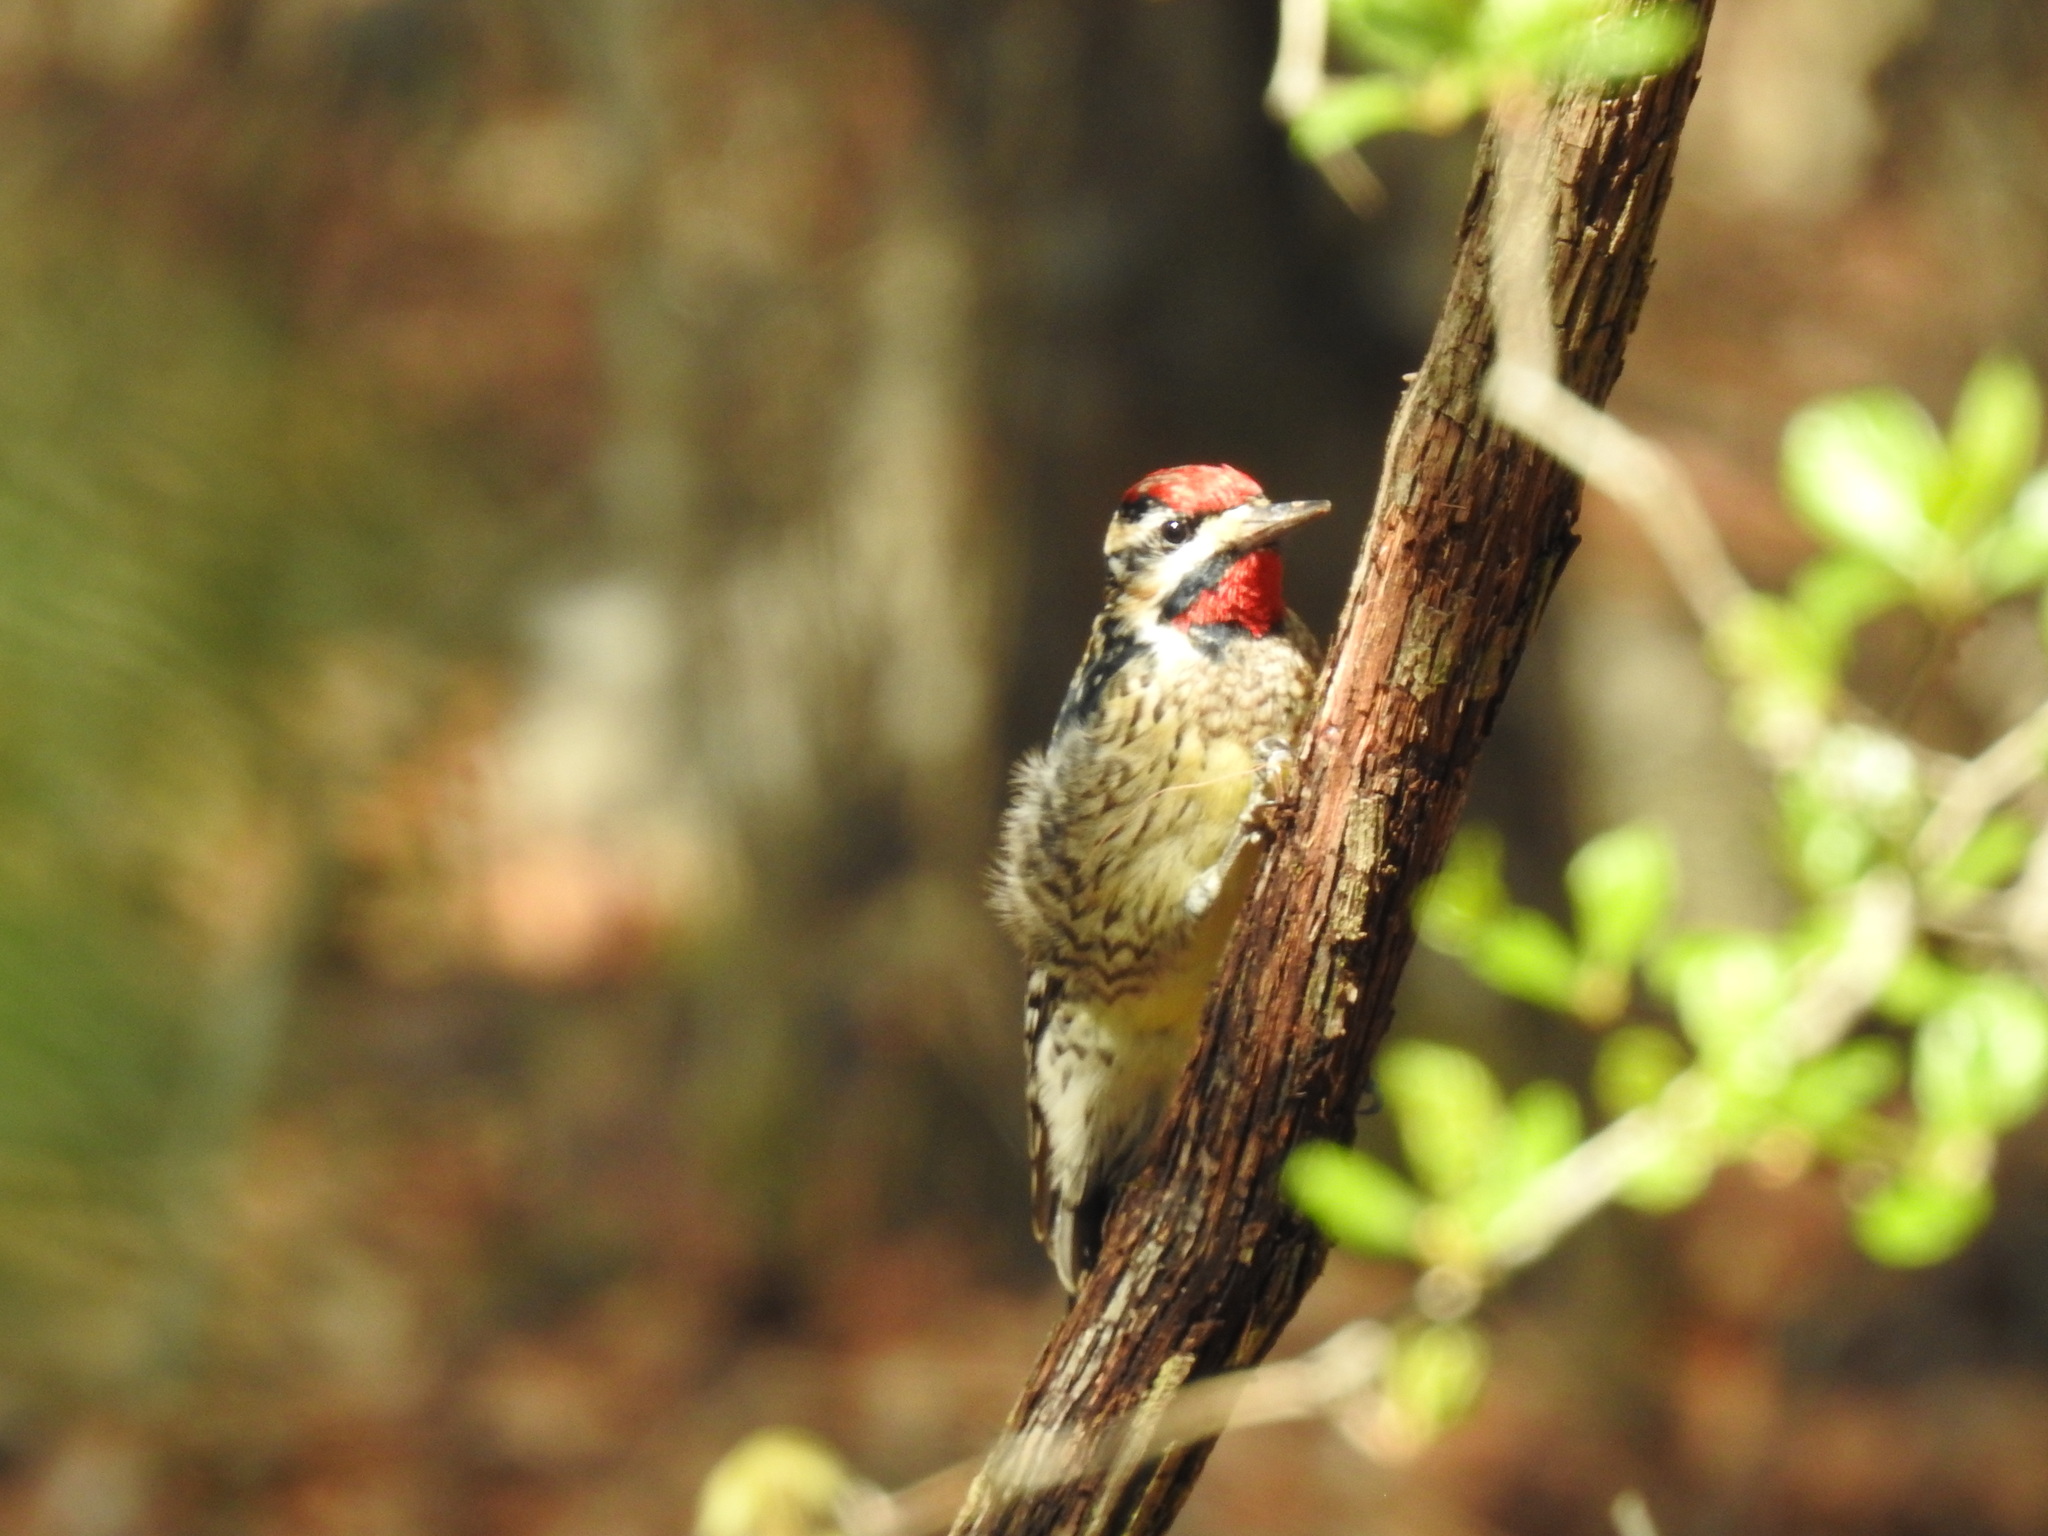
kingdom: Animalia
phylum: Chordata
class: Aves
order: Piciformes
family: Picidae
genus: Sphyrapicus
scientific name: Sphyrapicus varius
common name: Yellow-bellied sapsucker
